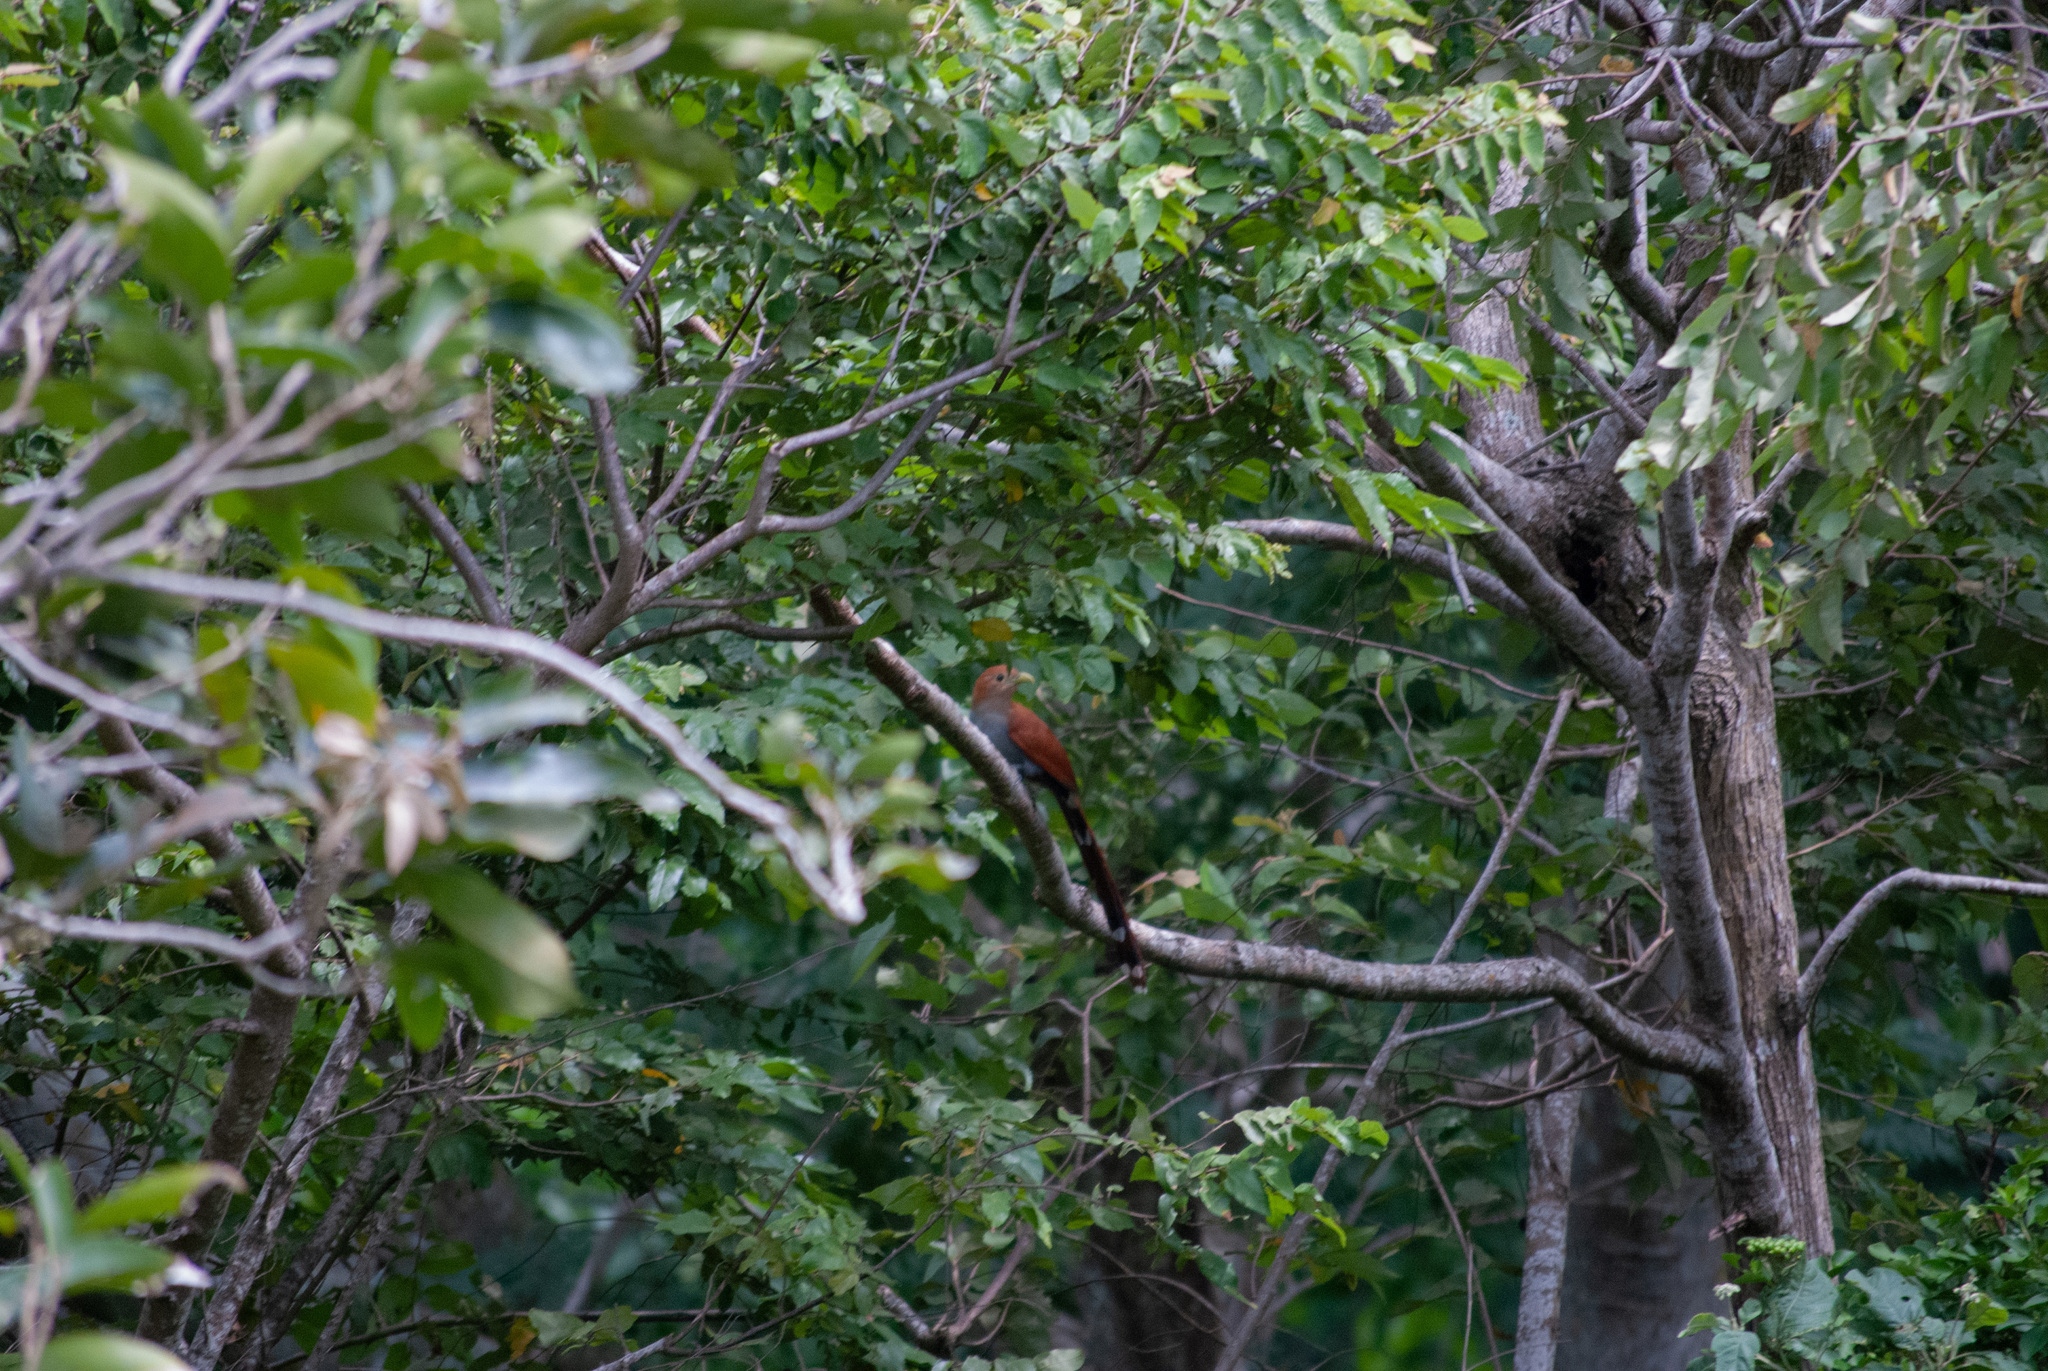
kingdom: Animalia
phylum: Chordata
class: Aves
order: Cuculiformes
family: Cuculidae
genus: Piaya
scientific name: Piaya cayana
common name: Squirrel cuckoo
